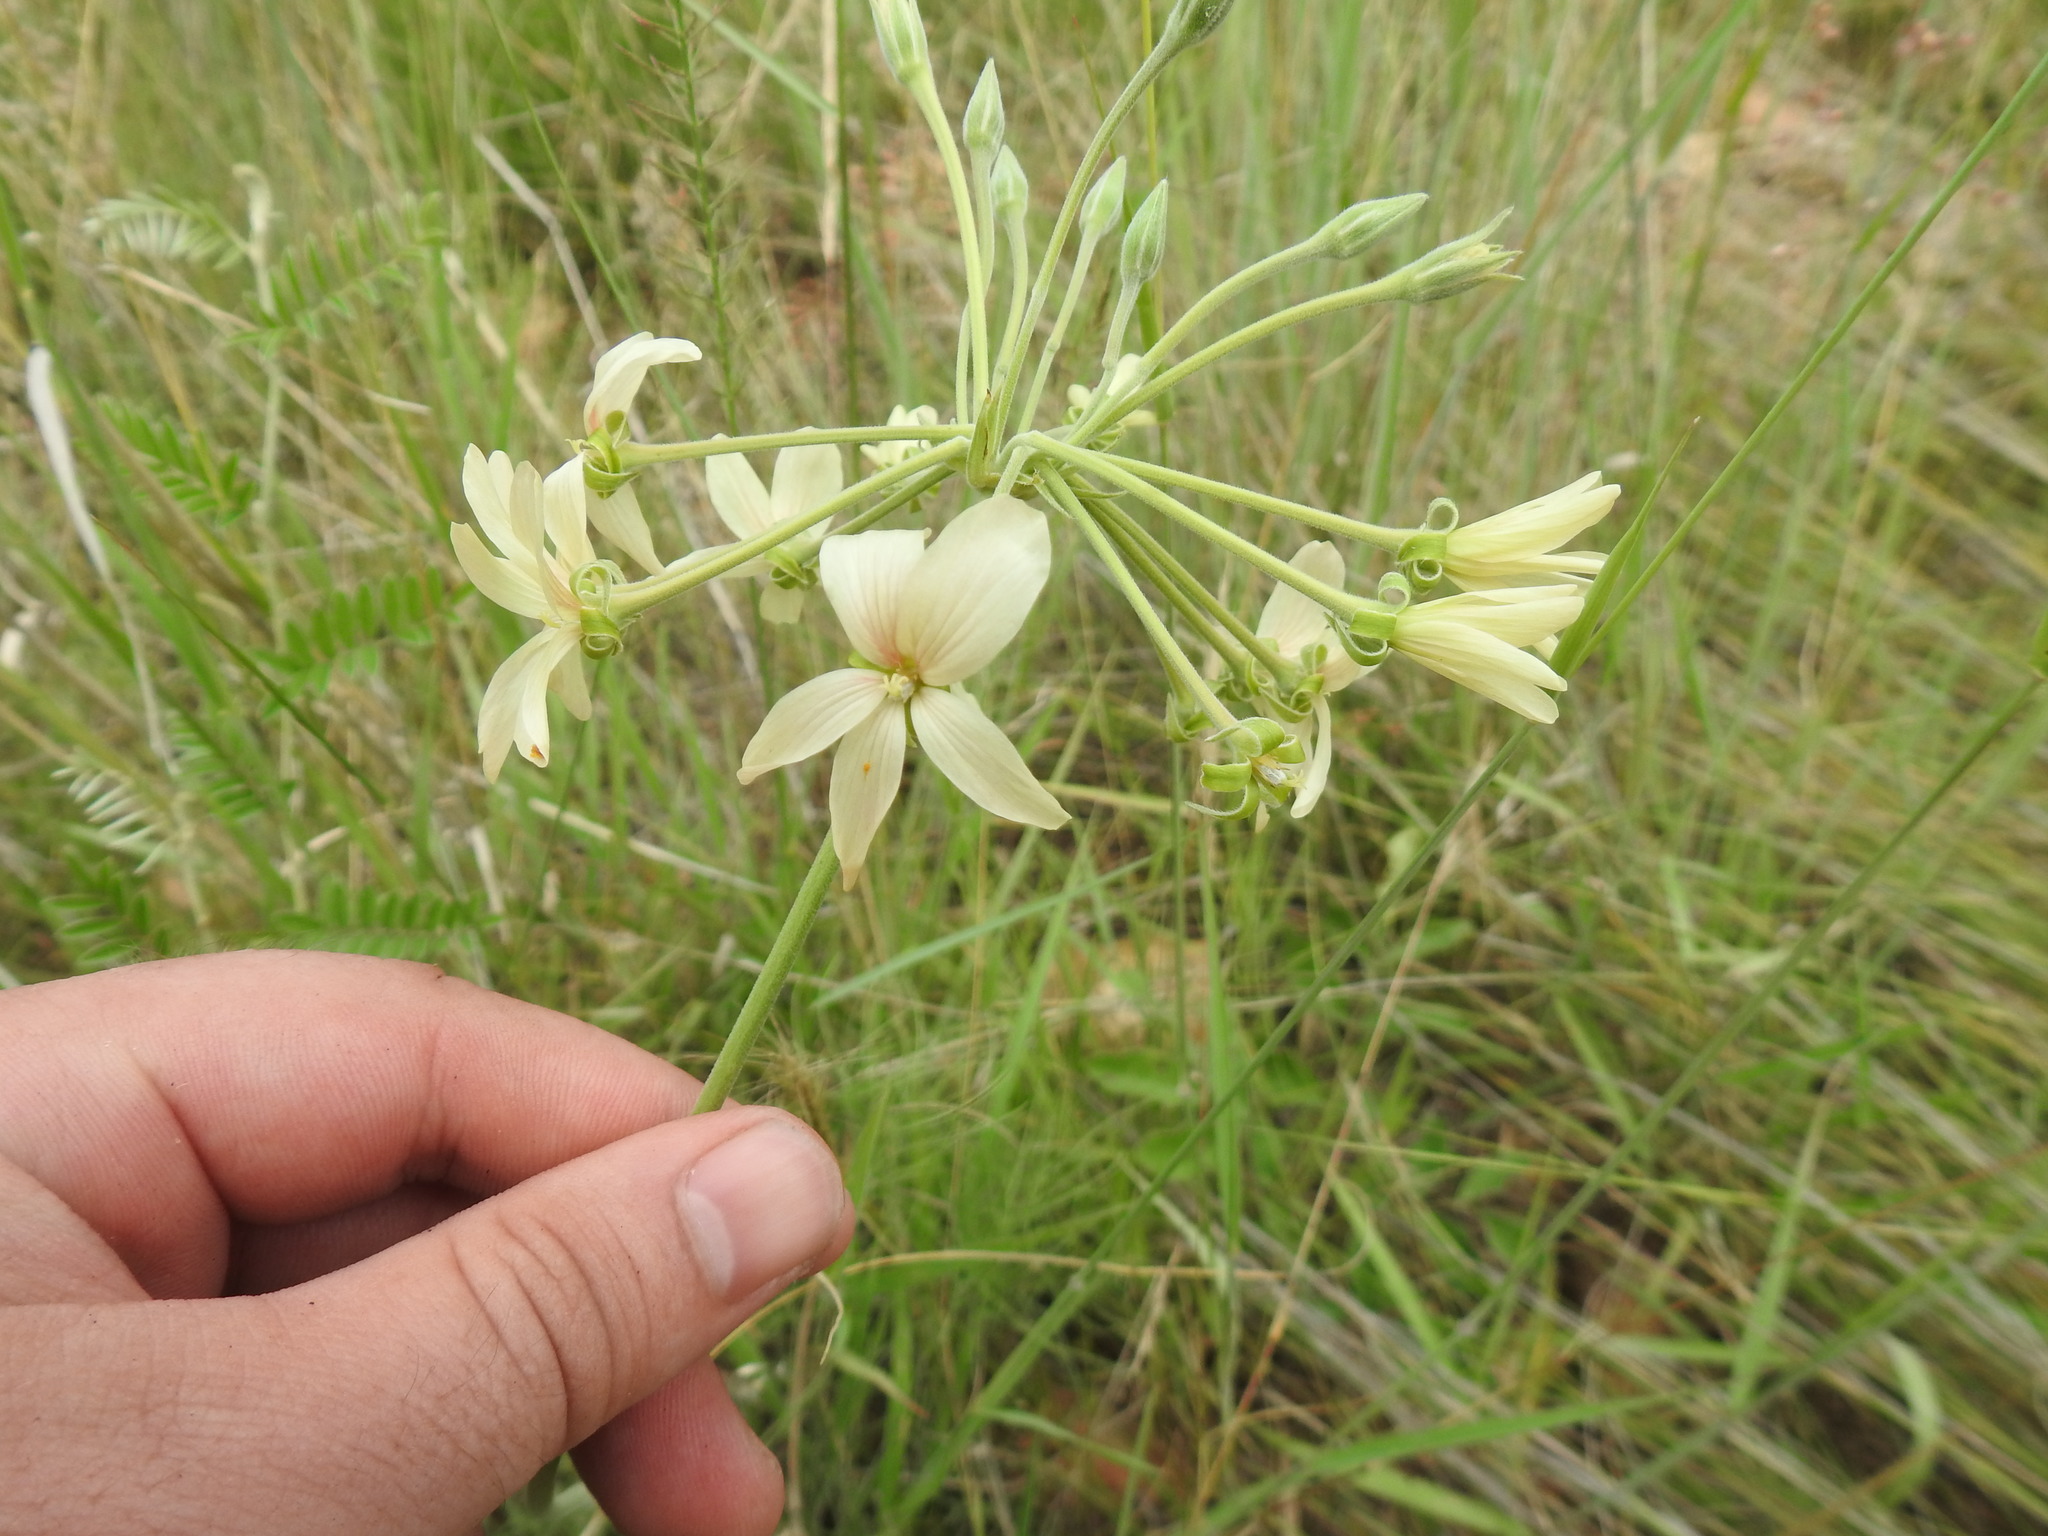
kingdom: Plantae
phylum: Tracheophyta
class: Magnoliopsida
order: Geraniales
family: Geraniaceae
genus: Pelargonium
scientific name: Pelargonium luridum
